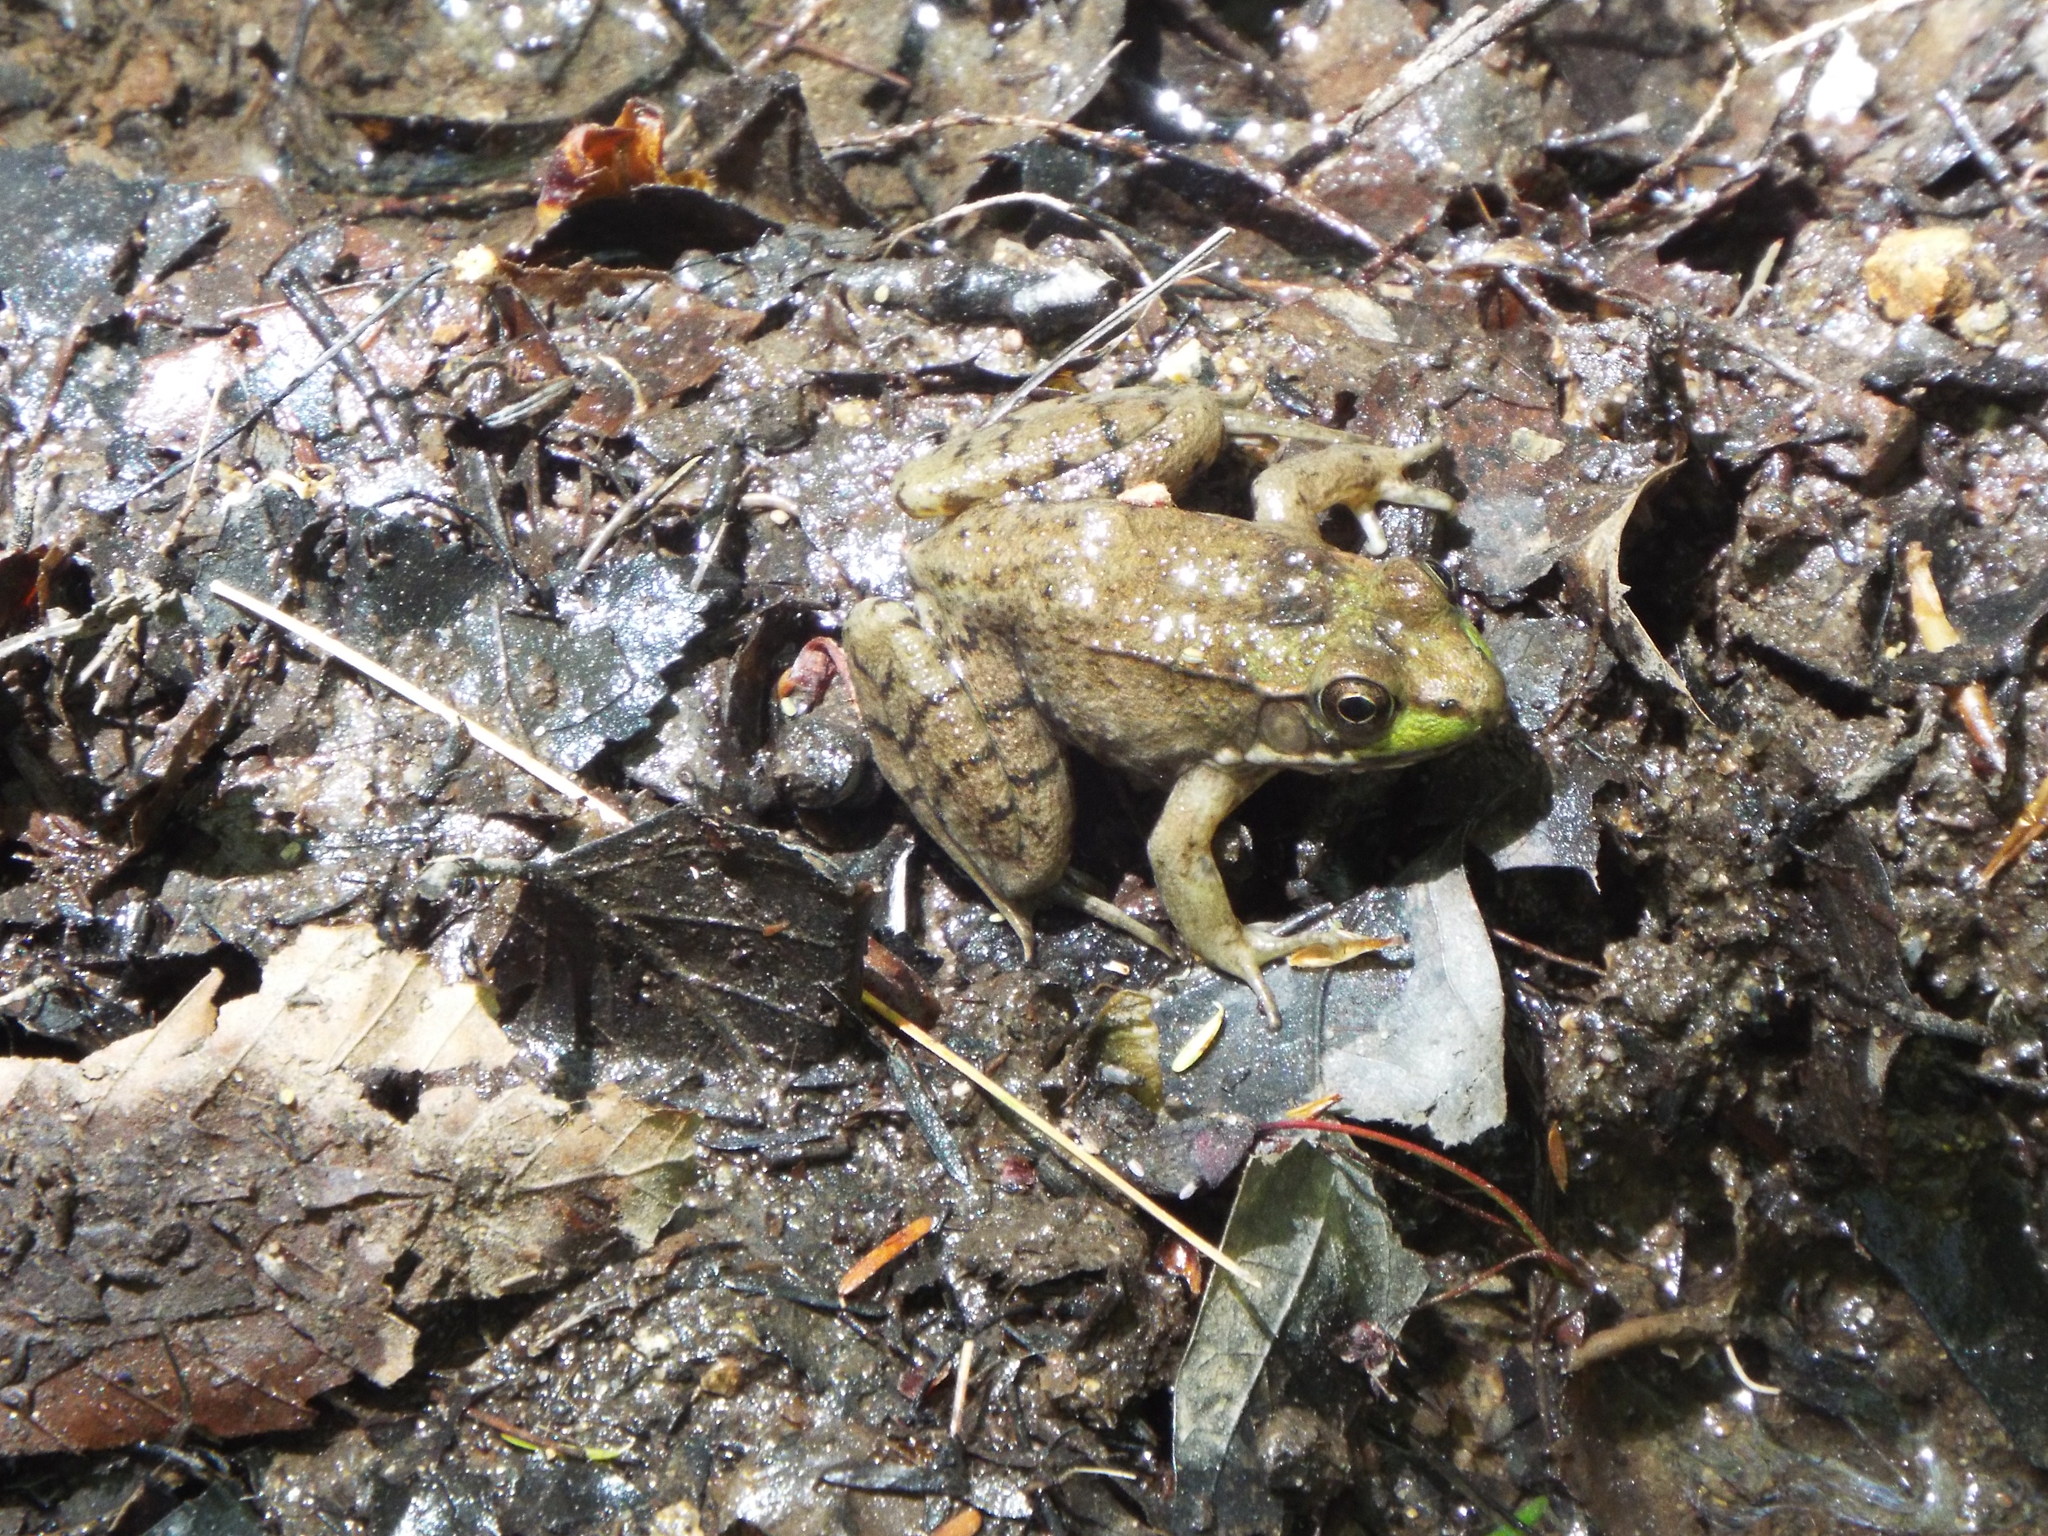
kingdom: Animalia
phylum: Chordata
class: Amphibia
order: Anura
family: Ranidae
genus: Lithobates
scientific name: Lithobates clamitans
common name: Green frog
